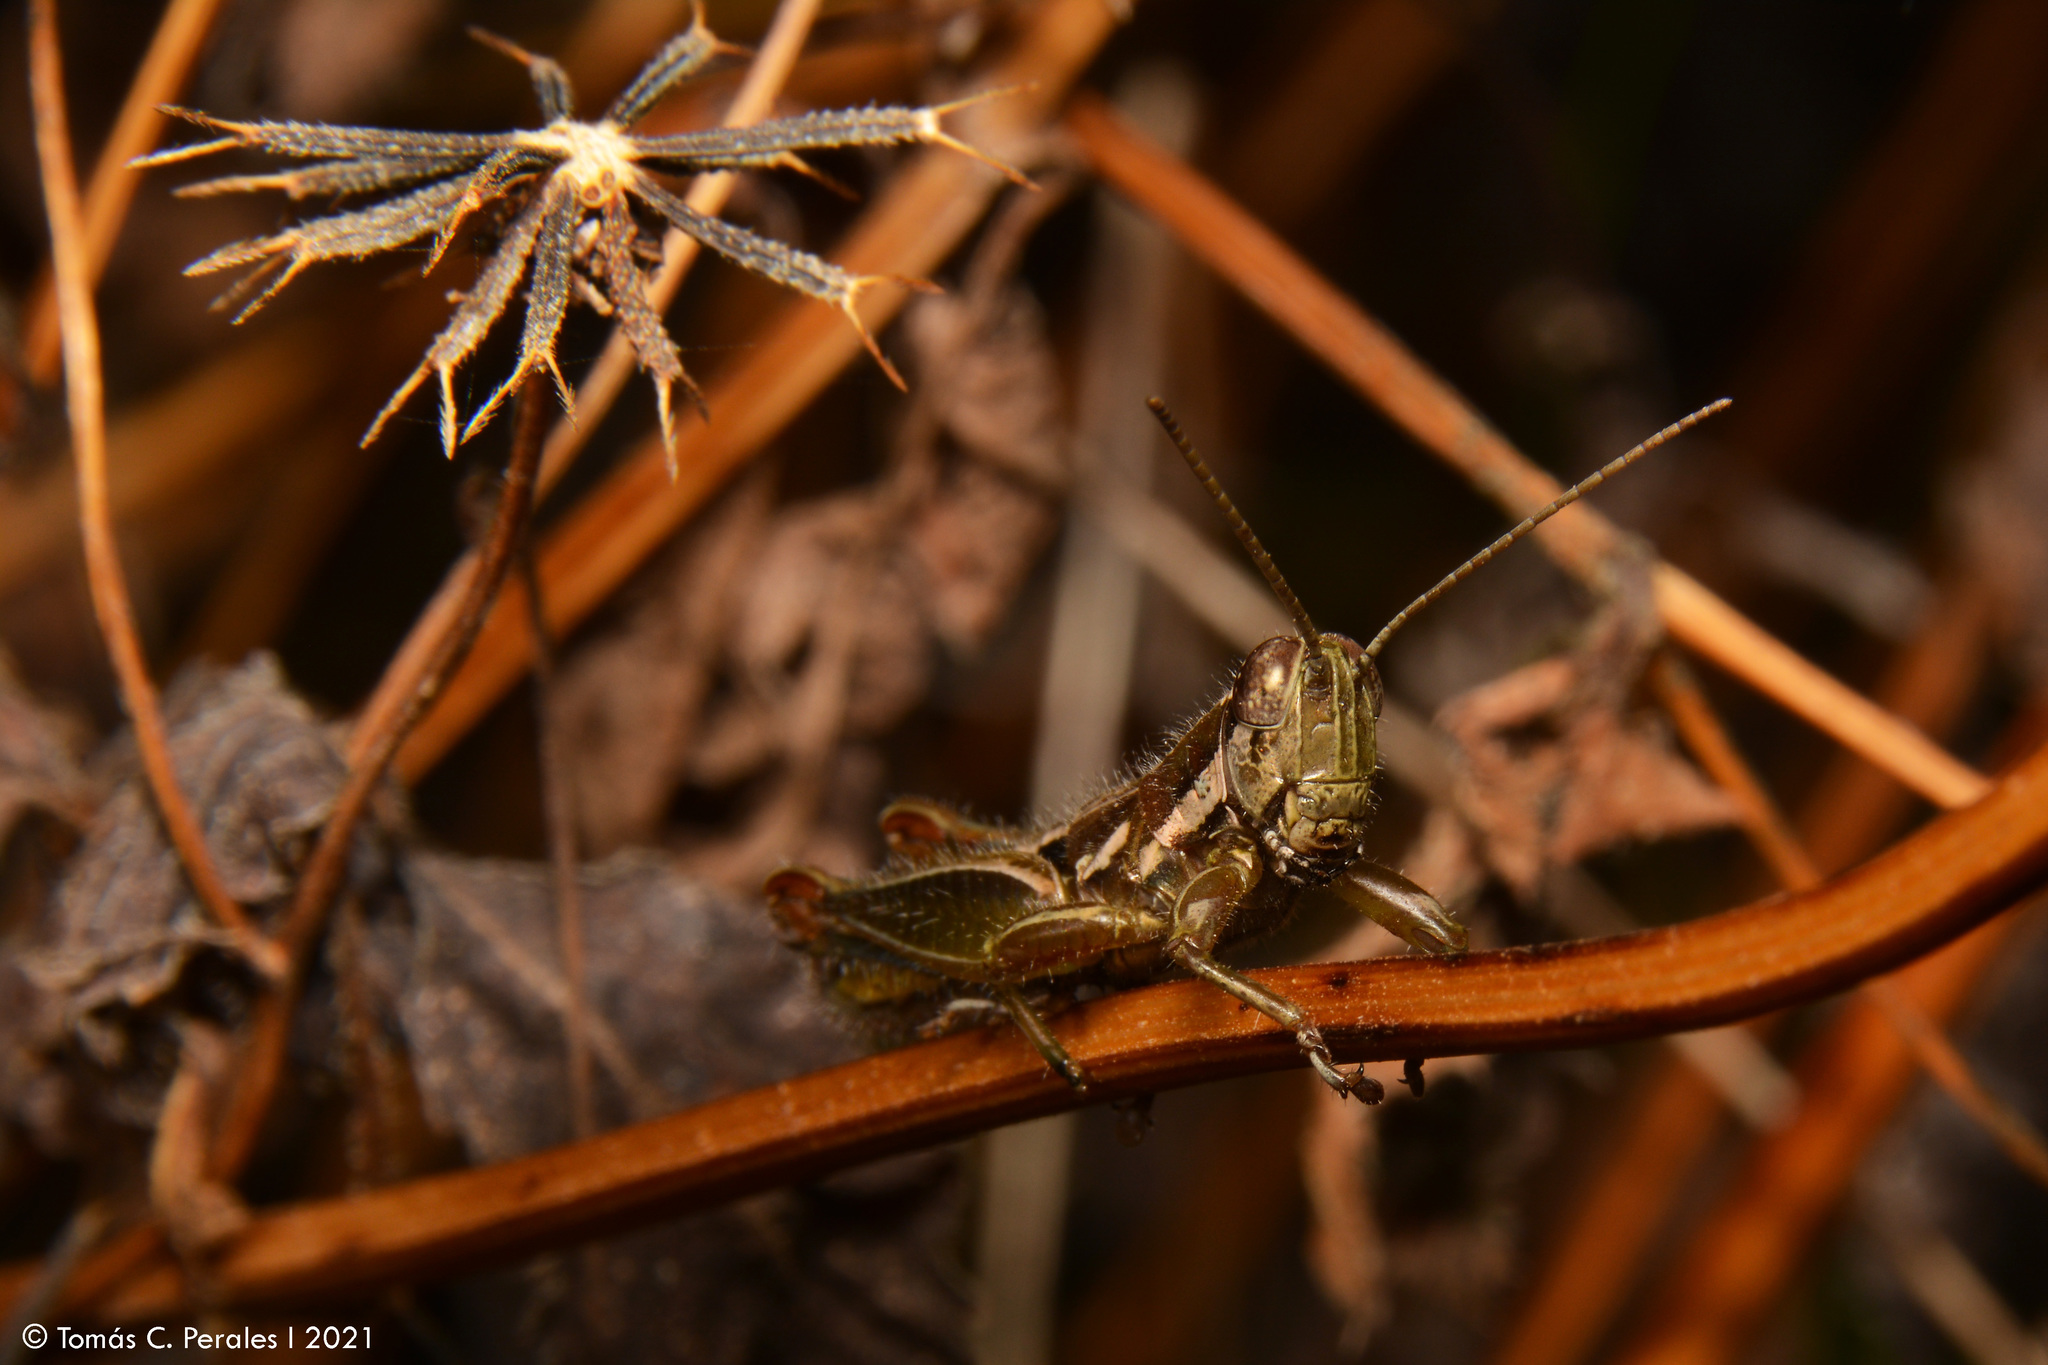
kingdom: Plantae
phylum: Tracheophyta
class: Magnoliopsida
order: Asterales
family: Asteraceae
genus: Bidens
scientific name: Bidens pilosa
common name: Black-jack
